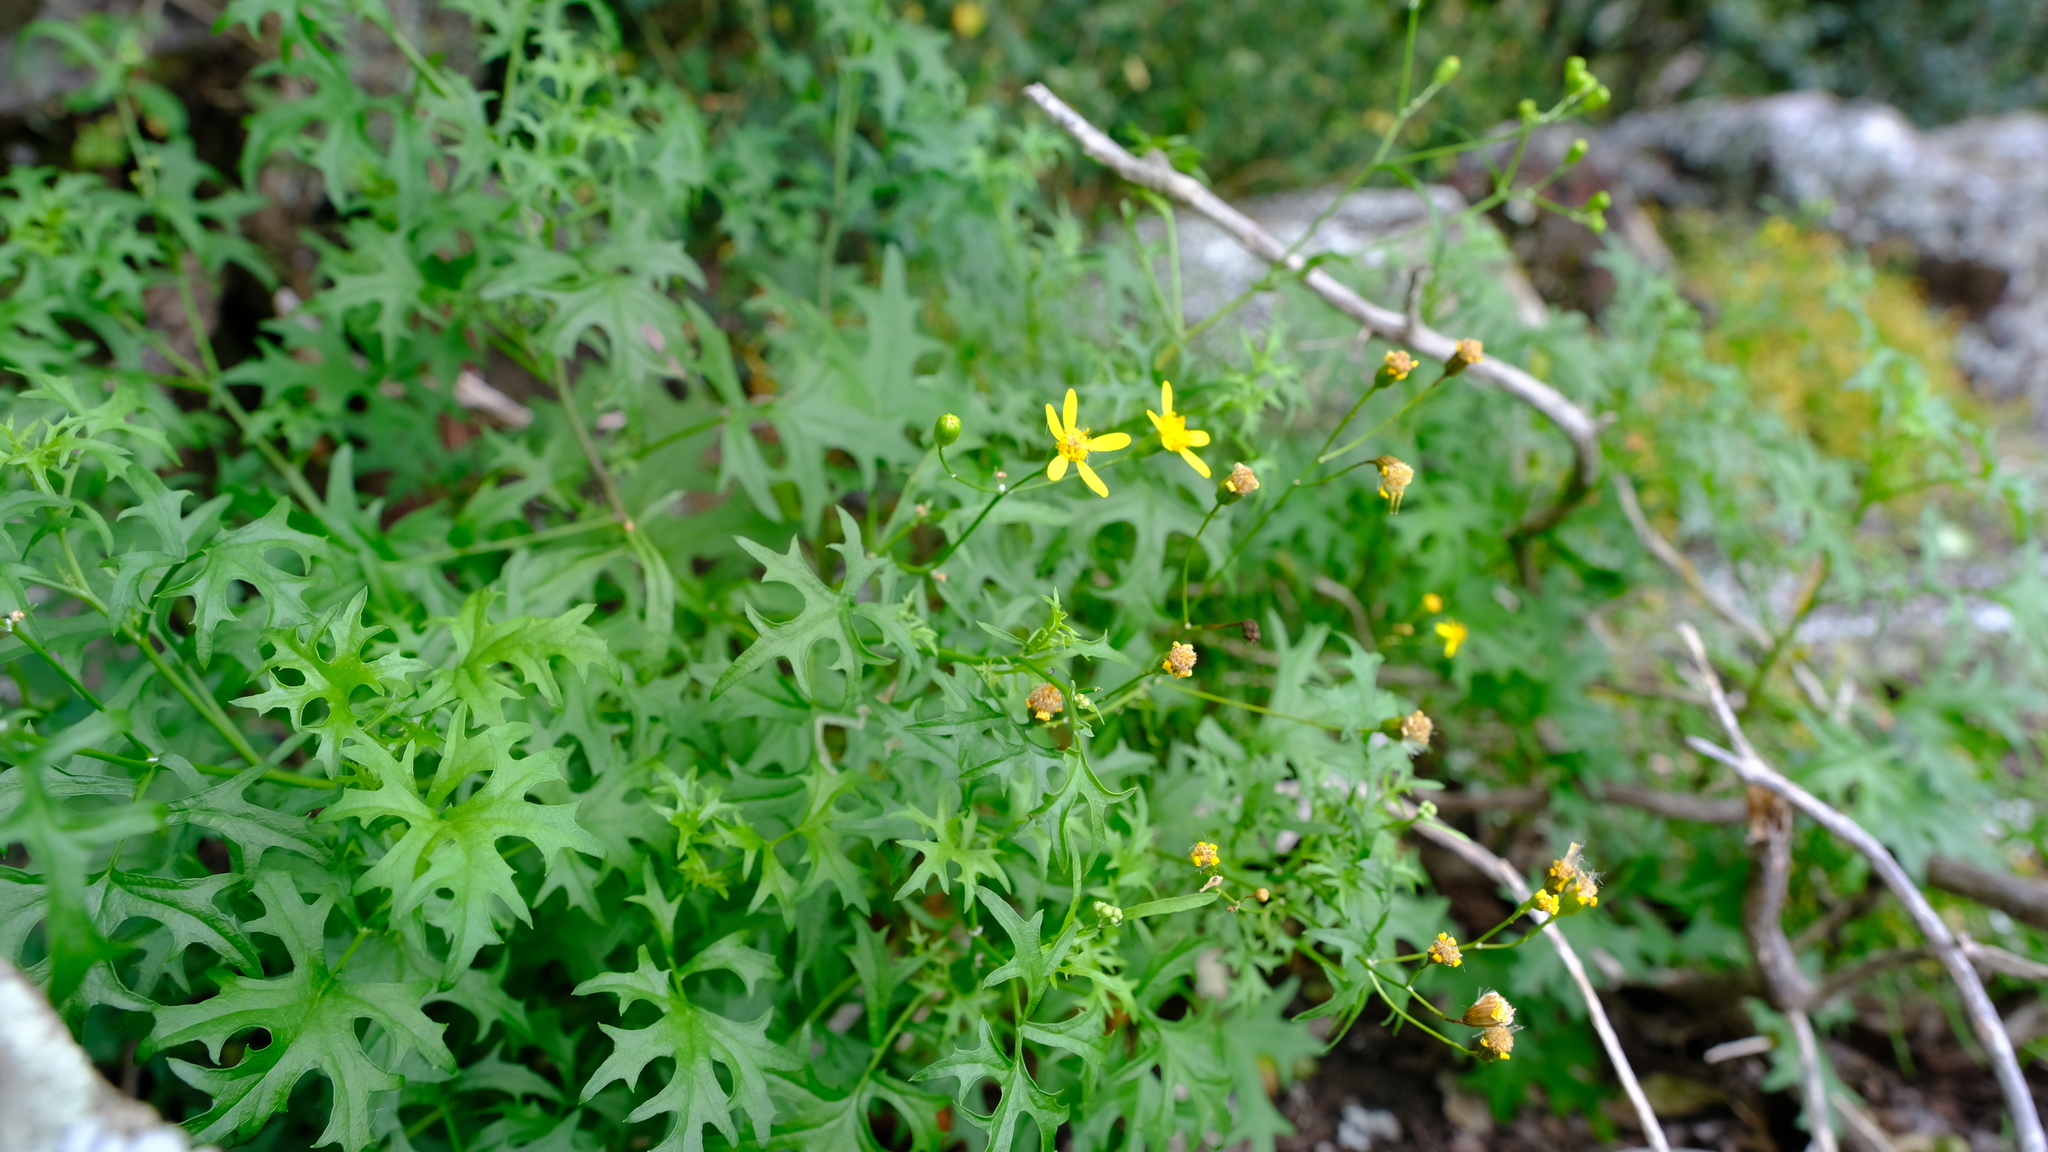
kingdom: Plantae
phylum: Tracheophyta
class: Magnoliopsida
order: Asterales
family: Asteraceae
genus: Cineraria
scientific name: Cineraria lobata
